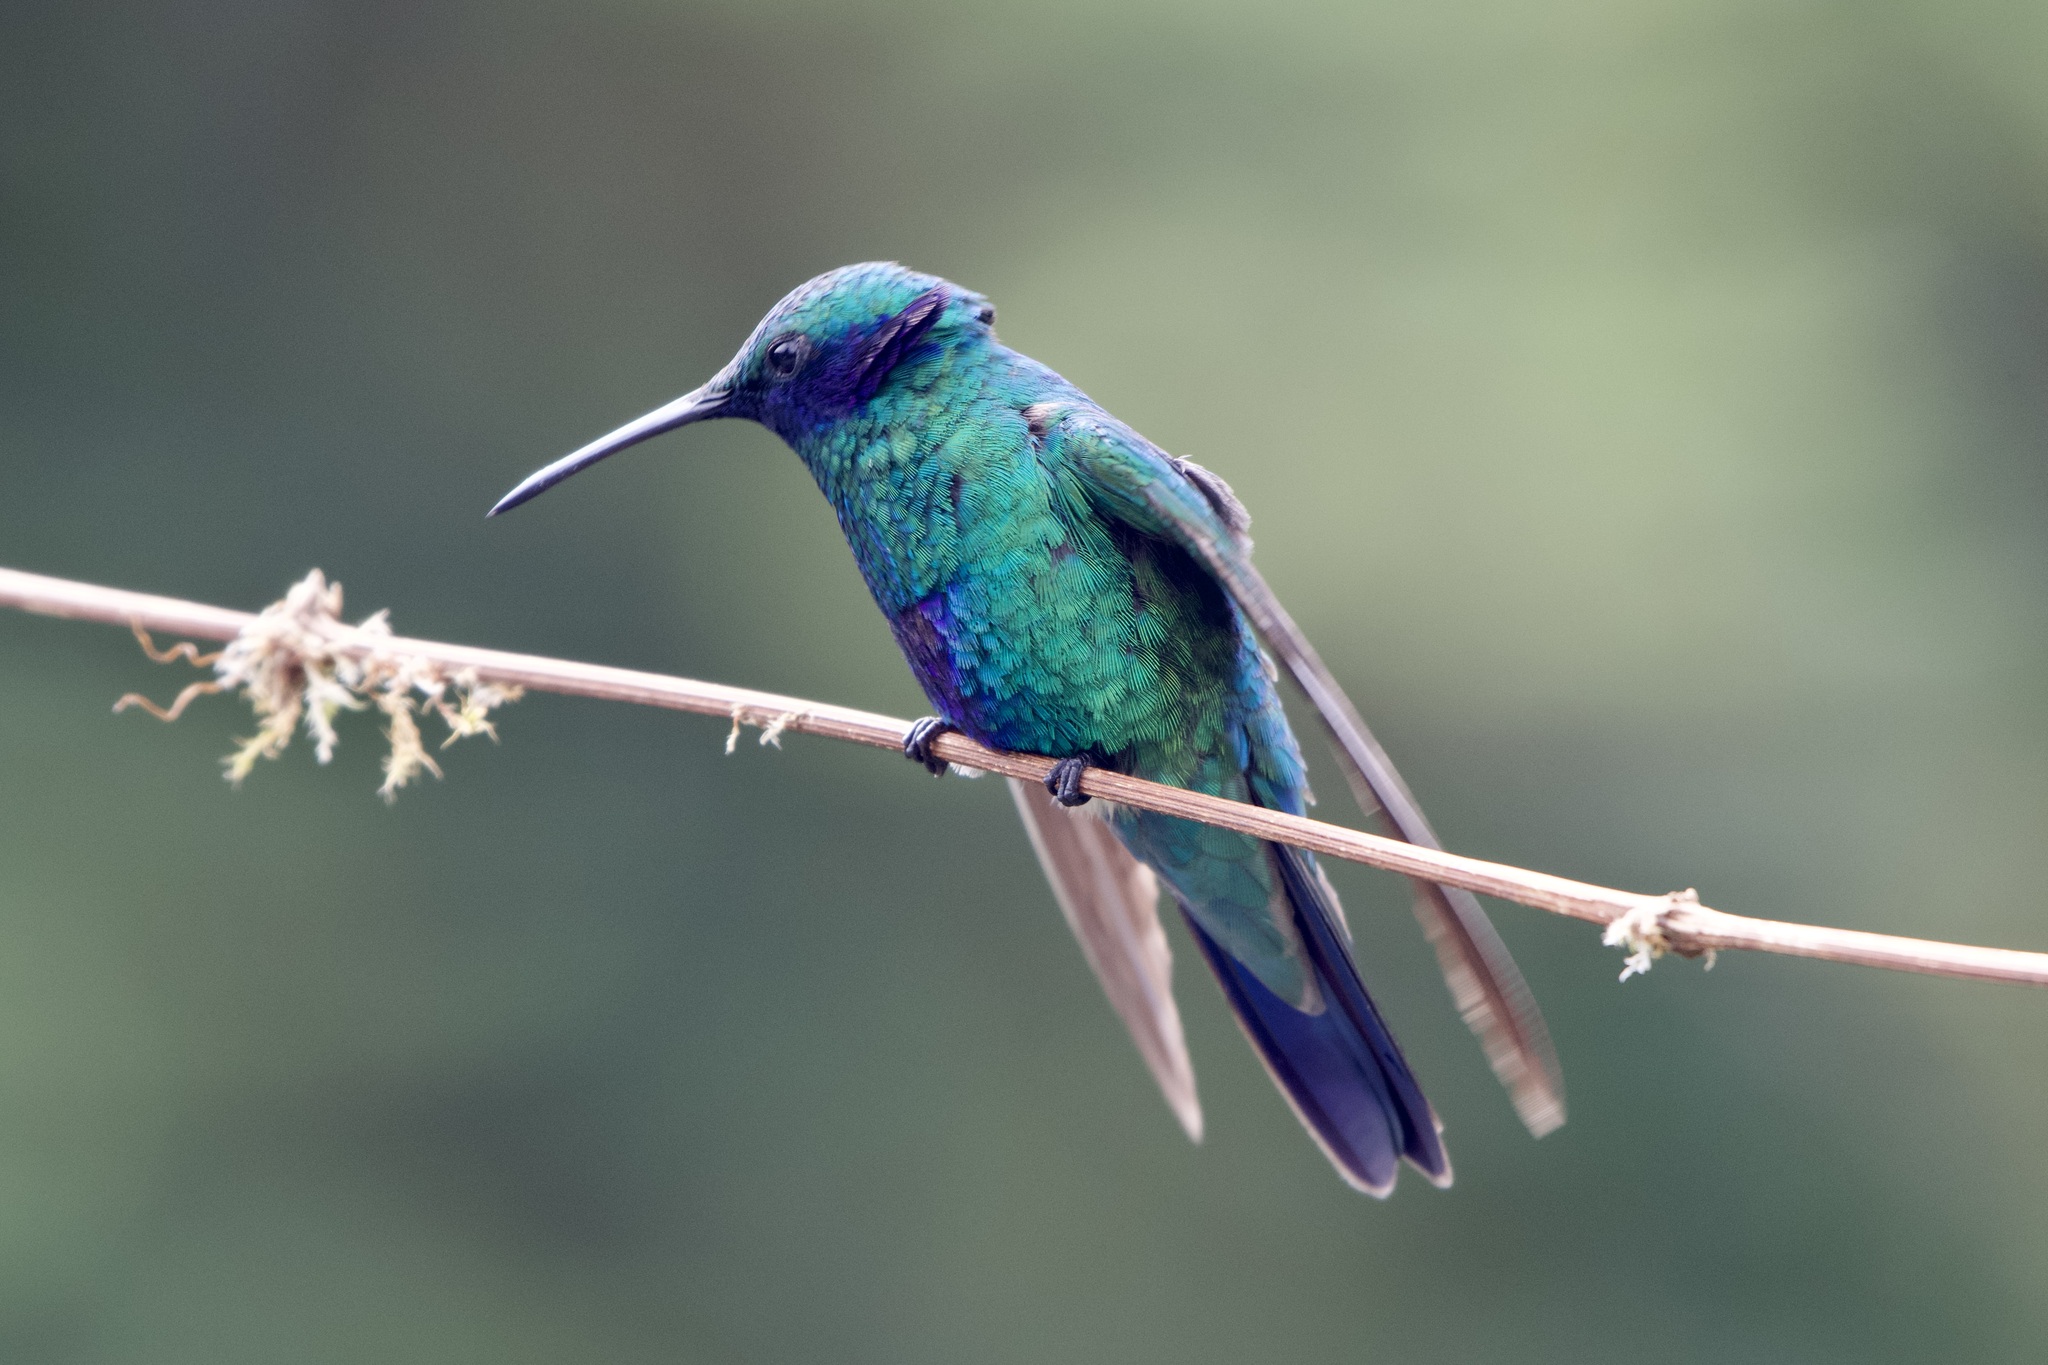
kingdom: Animalia
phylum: Chordata
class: Aves
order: Apodiformes
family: Trochilidae
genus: Colibri
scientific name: Colibri coruscans
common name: Sparkling violetear
